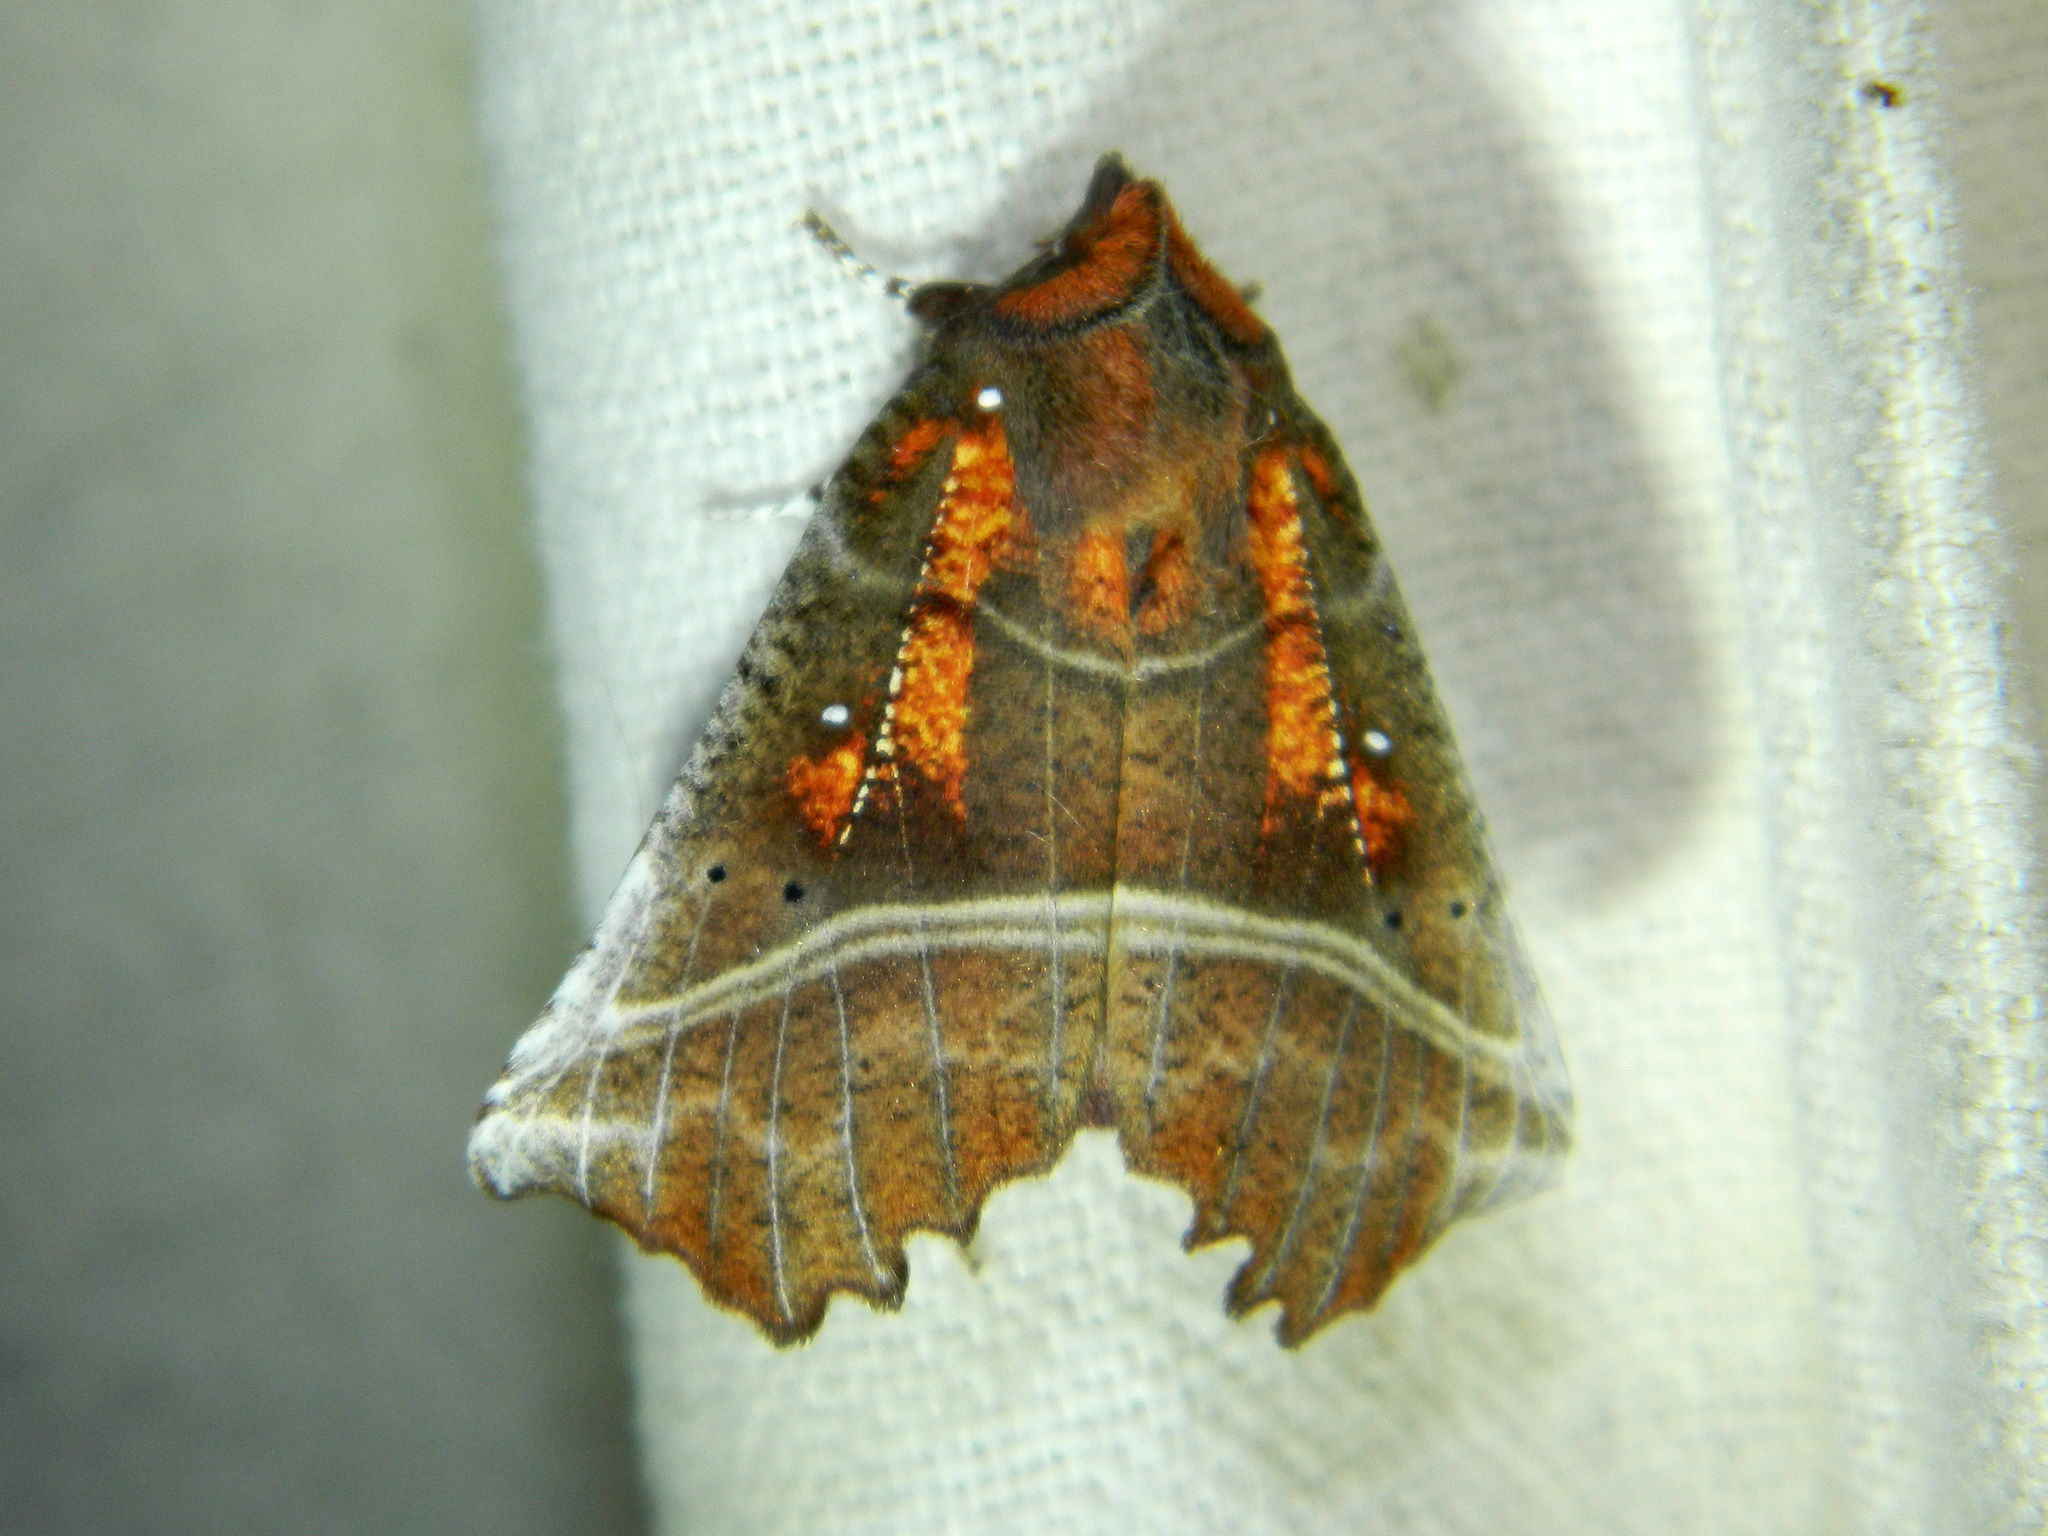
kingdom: Animalia
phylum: Arthropoda
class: Insecta
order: Lepidoptera
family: Erebidae
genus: Scoliopteryx
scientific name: Scoliopteryx libatrix
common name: Herald
